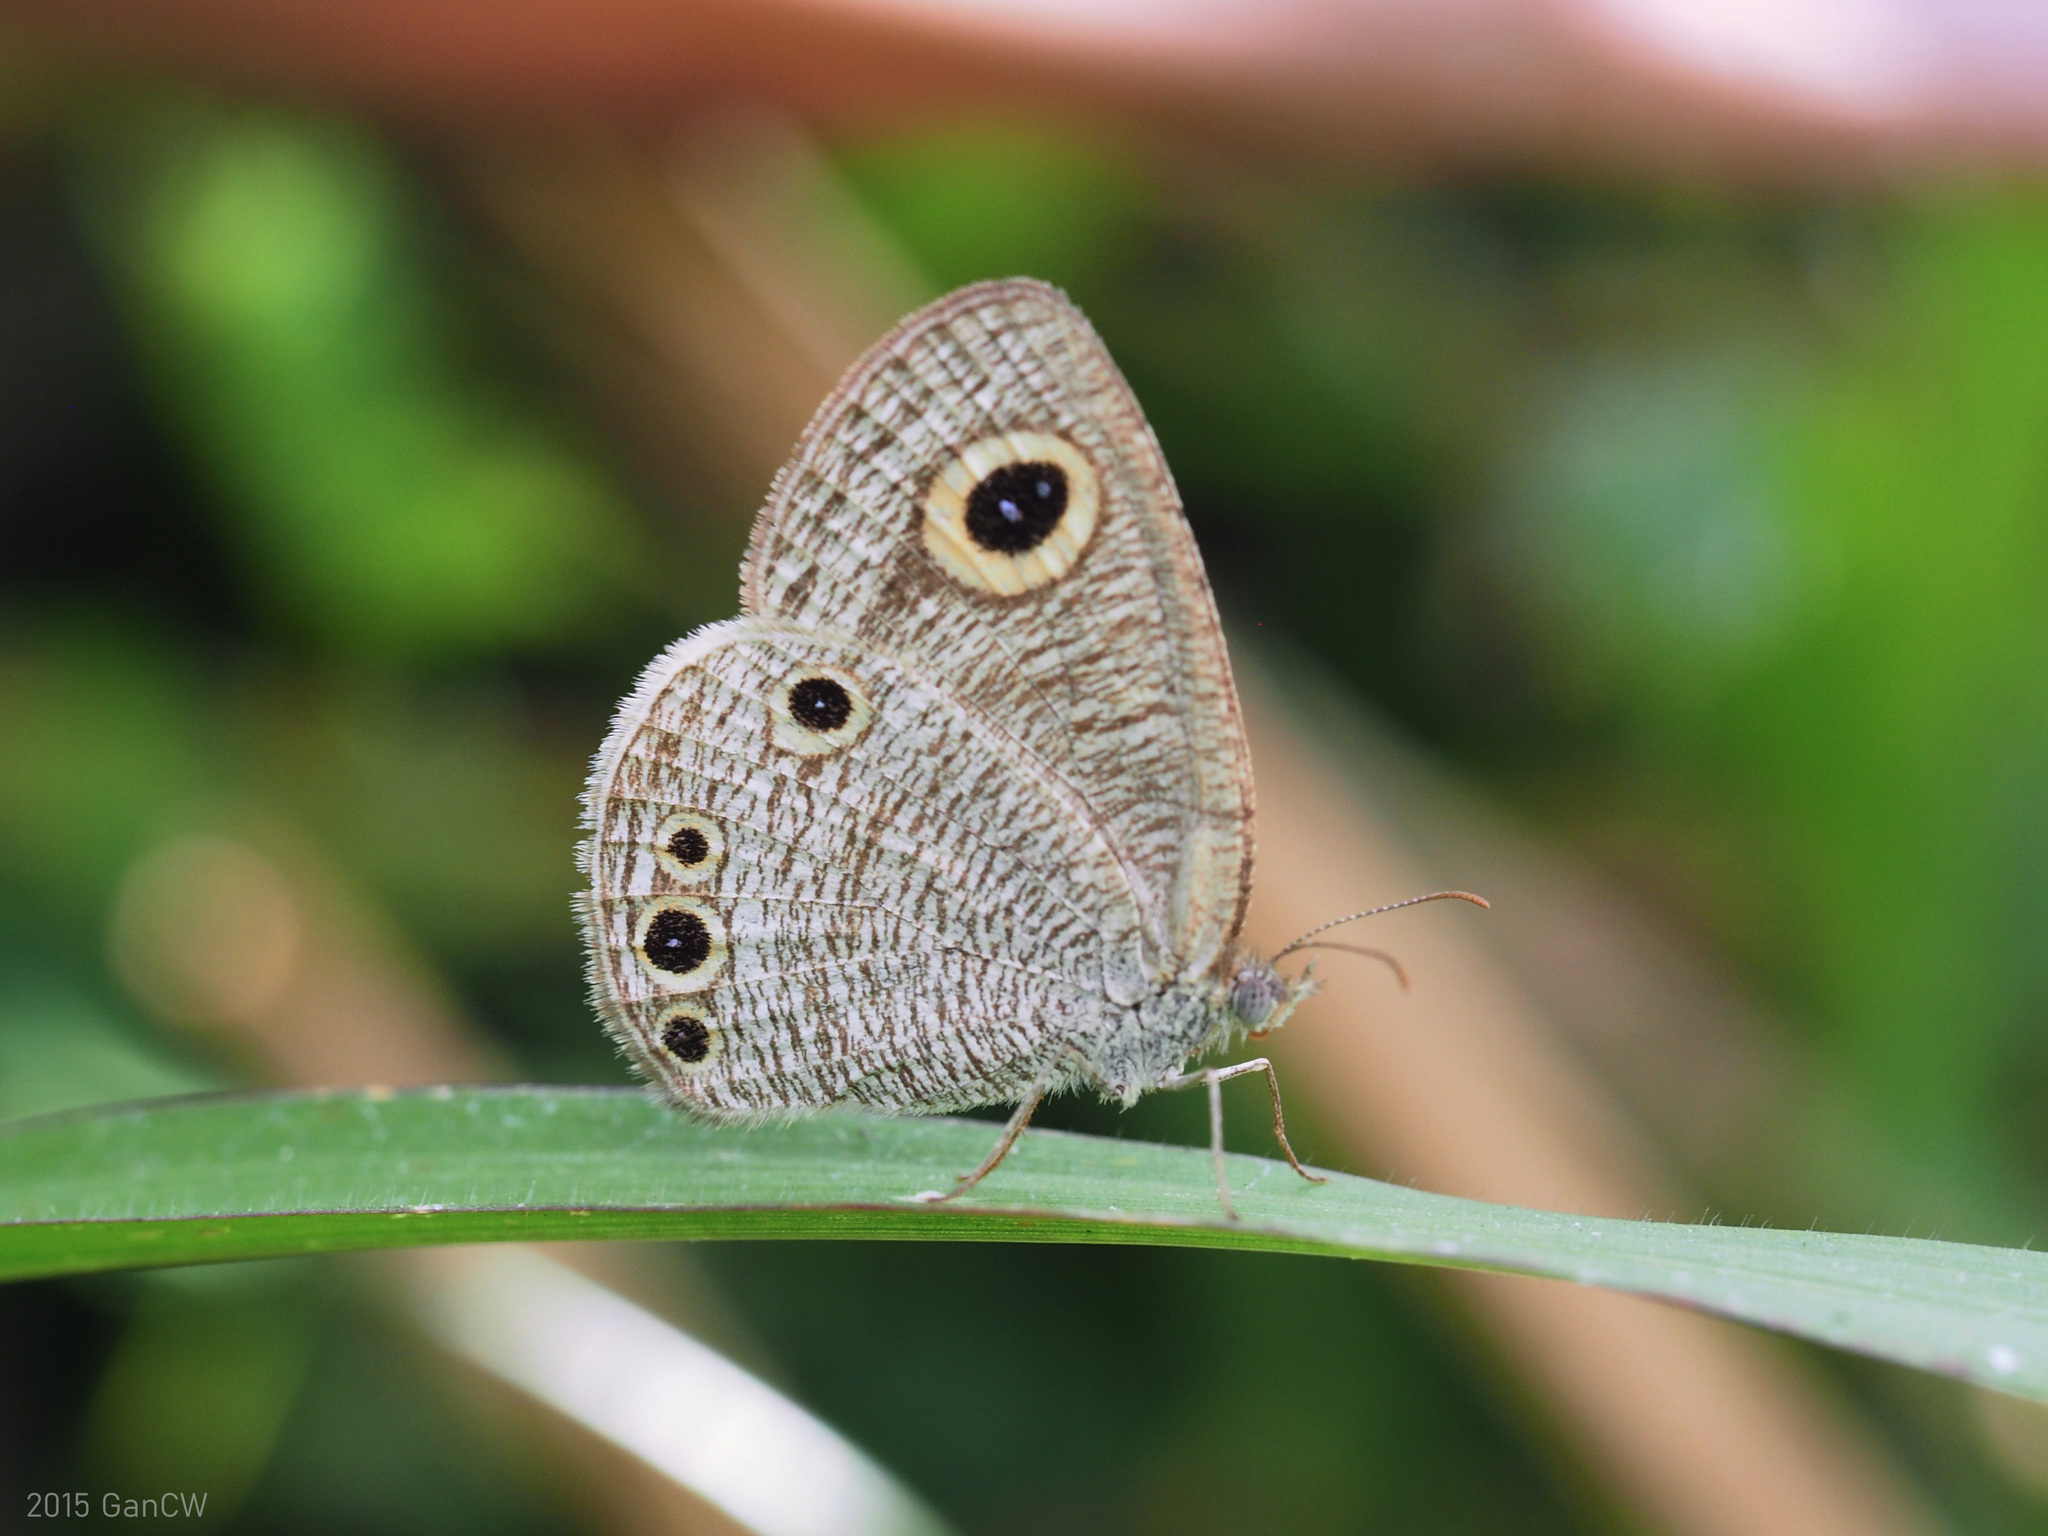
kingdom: Animalia
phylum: Arthropoda
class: Insecta
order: Lepidoptera
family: Nymphalidae
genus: Ypthima
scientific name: Ypthima huebneri
